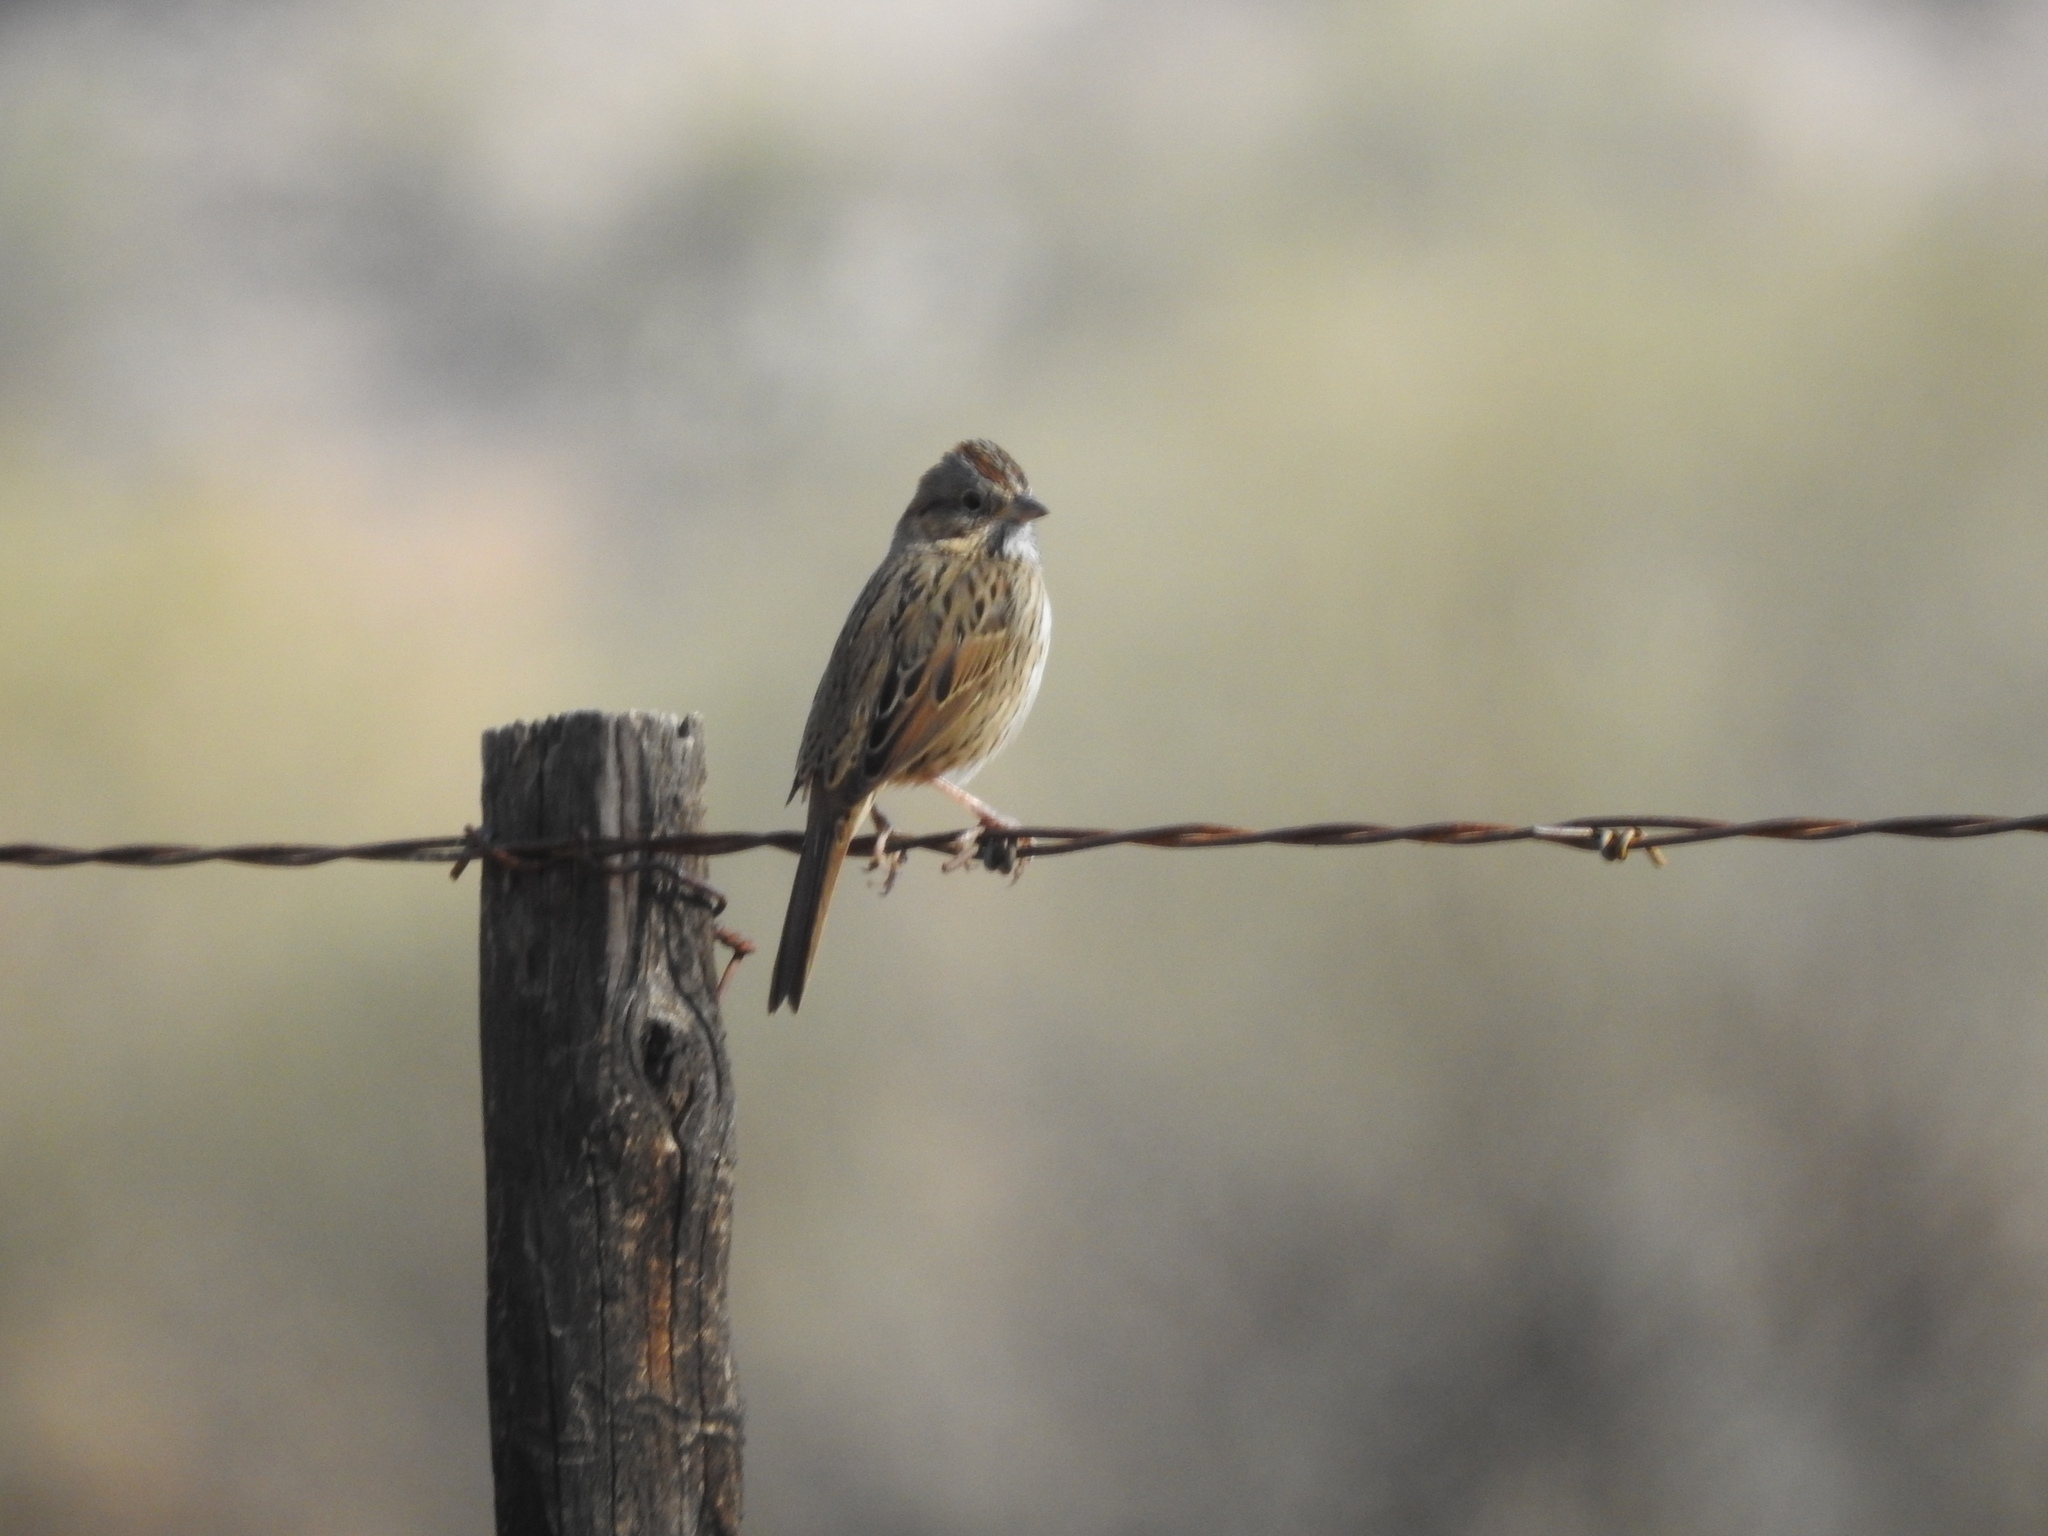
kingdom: Animalia
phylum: Chordata
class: Aves
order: Passeriformes
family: Passerellidae
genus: Melospiza
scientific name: Melospiza lincolnii
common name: Lincoln's sparrow
